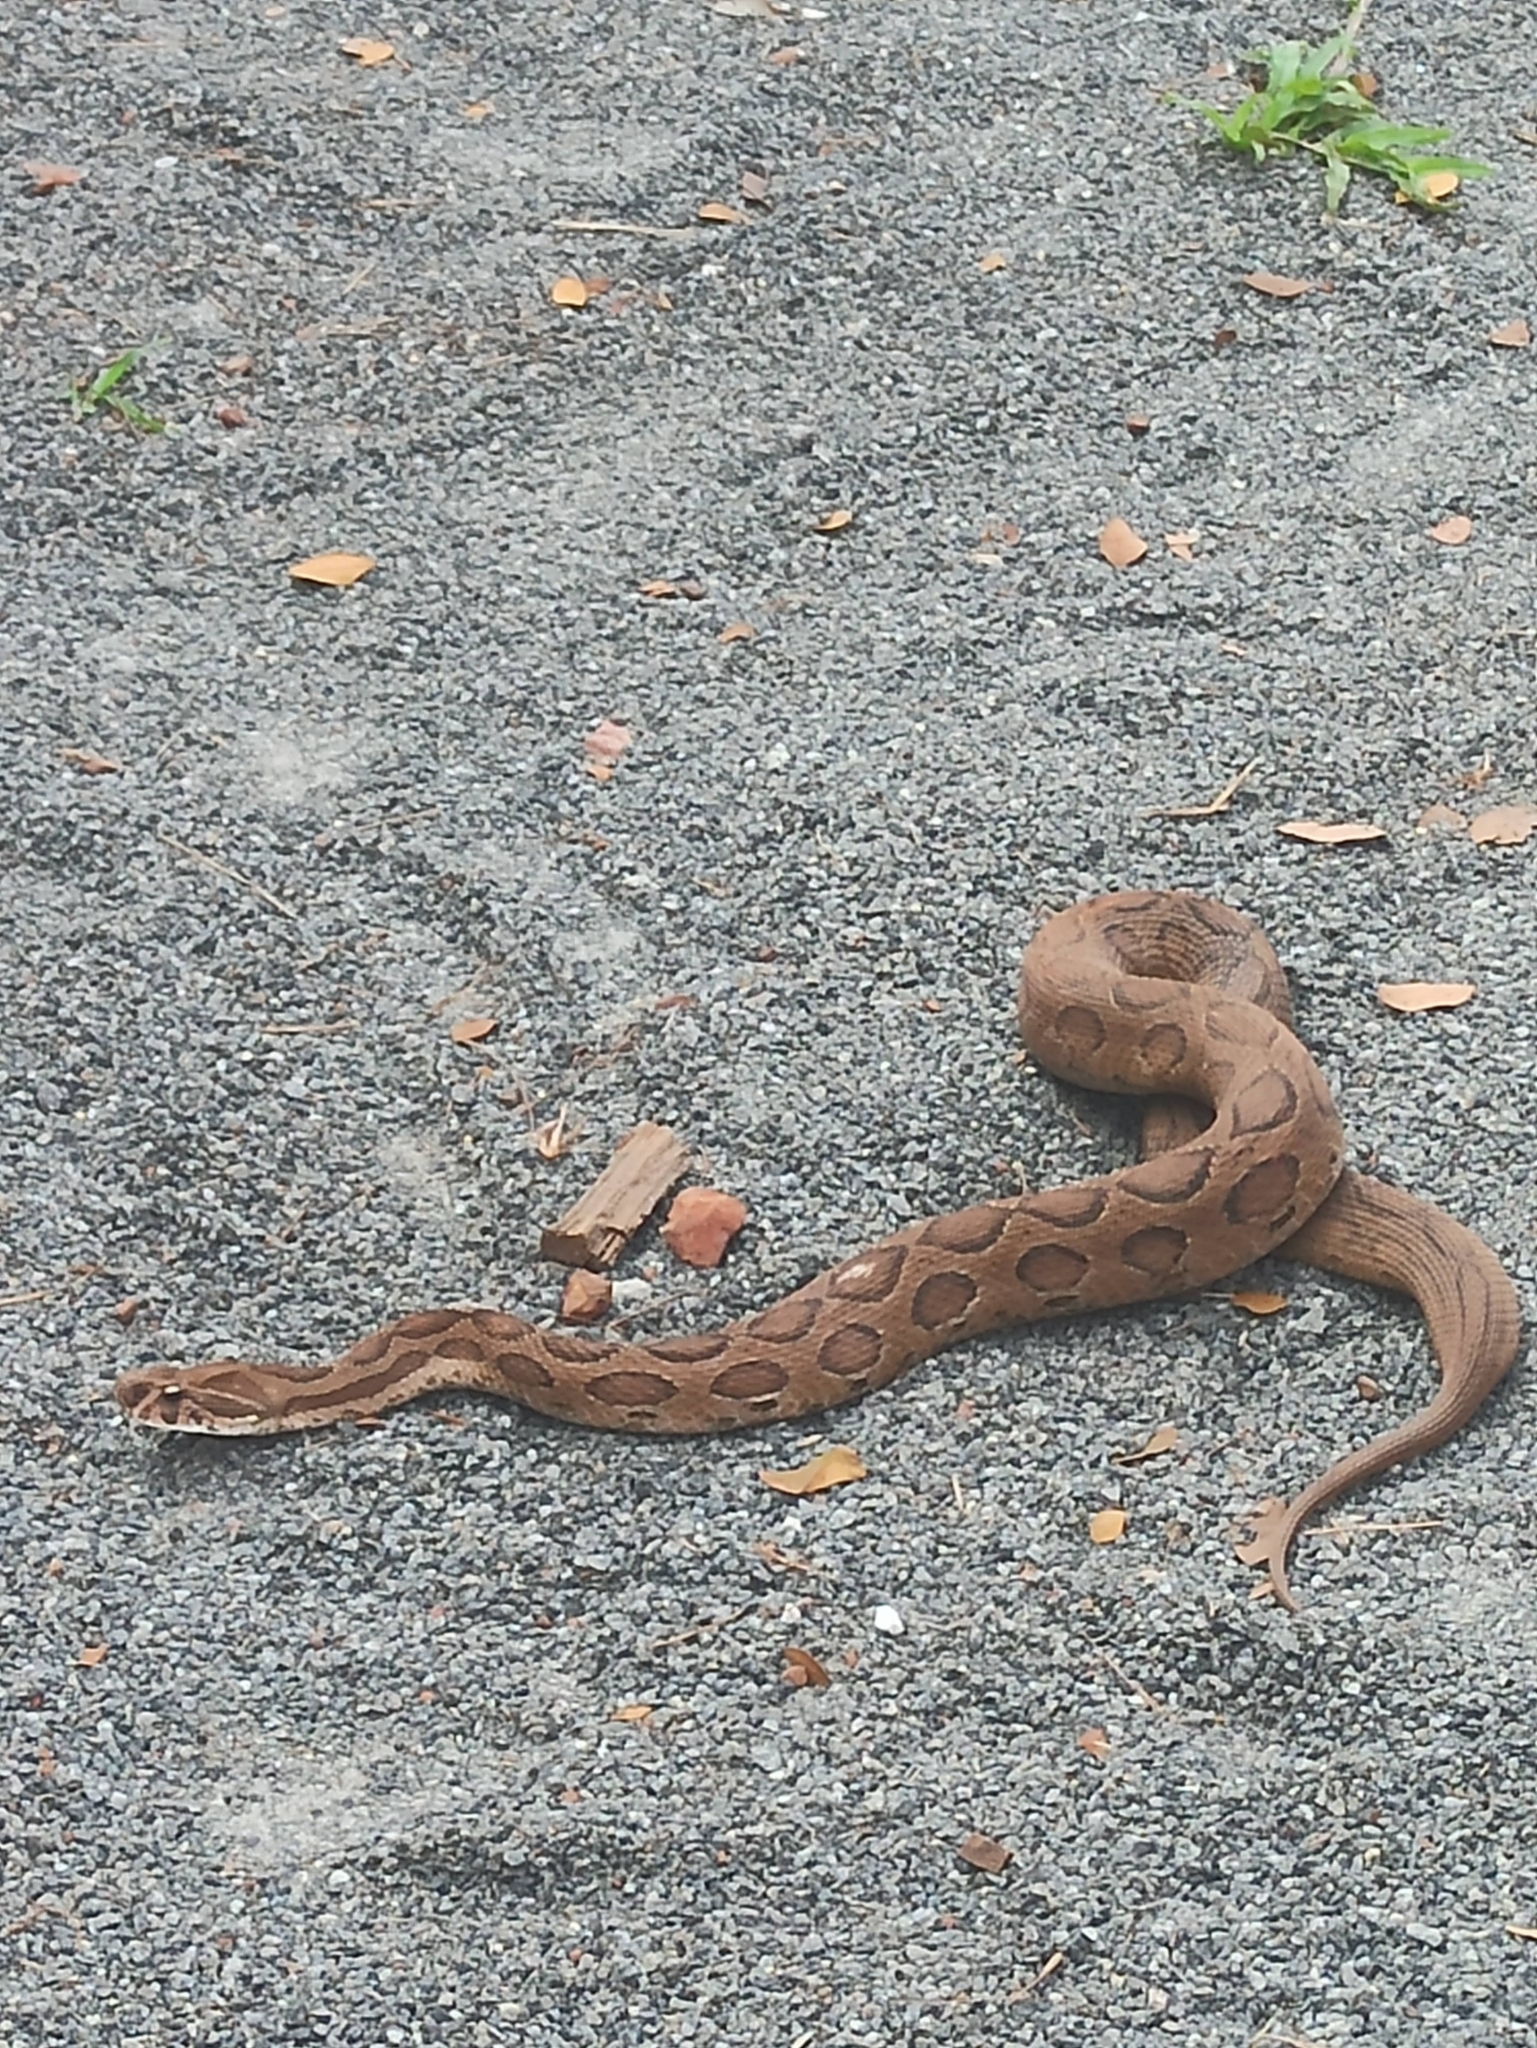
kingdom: Animalia
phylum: Chordata
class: Squamata
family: Viperidae
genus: Daboia
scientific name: Daboia russelii
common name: Western russel’s viper
